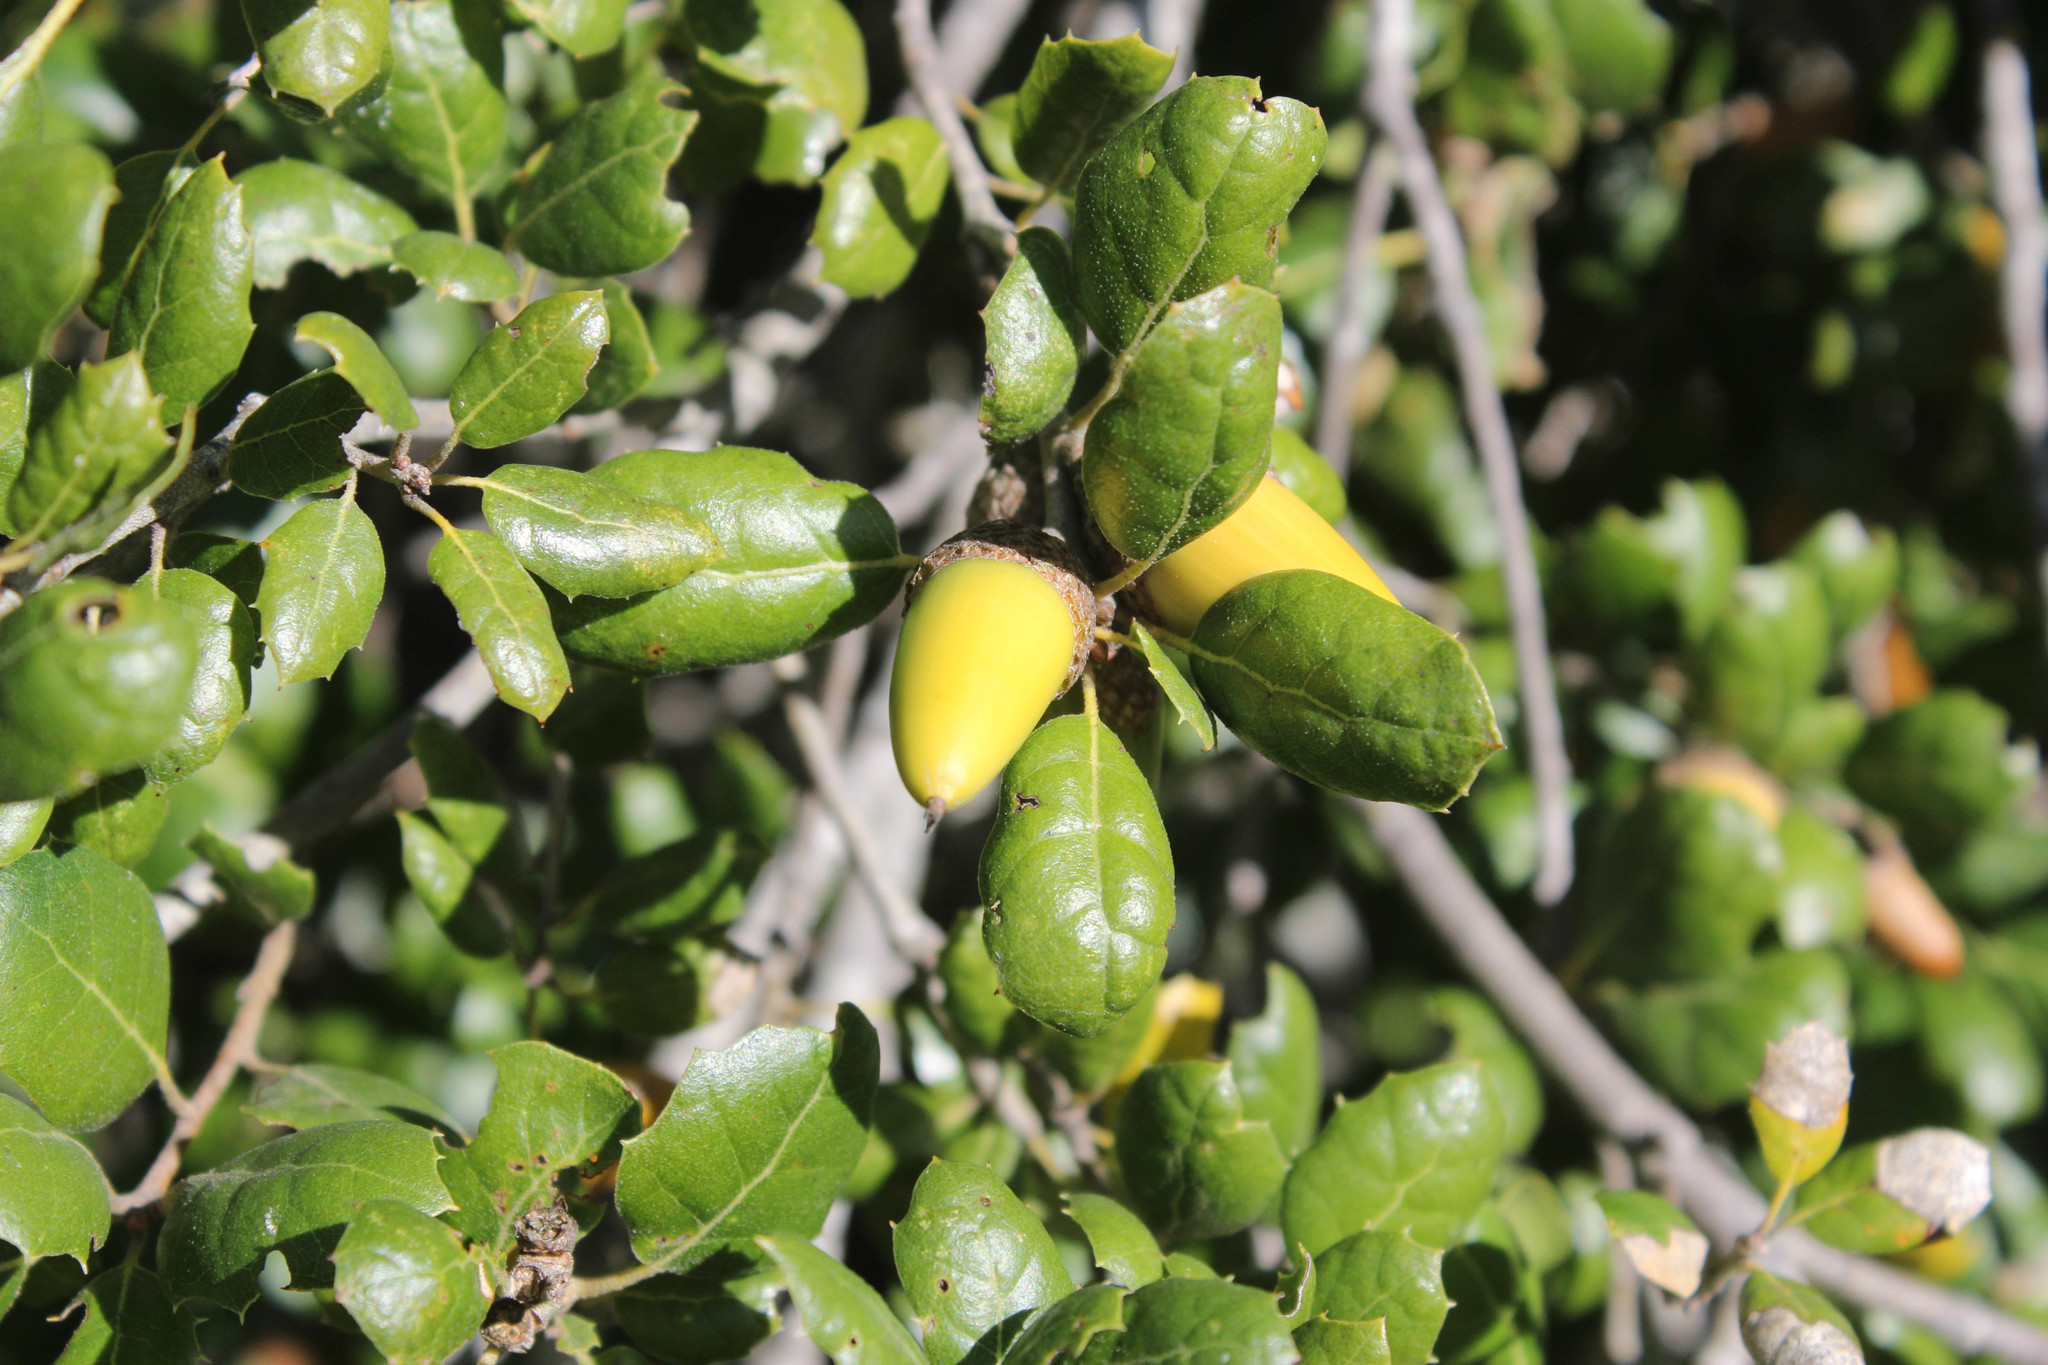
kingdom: Plantae
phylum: Tracheophyta
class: Magnoliopsida
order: Fagales
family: Fagaceae
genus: Quercus
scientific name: Quercus agrifolia
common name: California live oak
